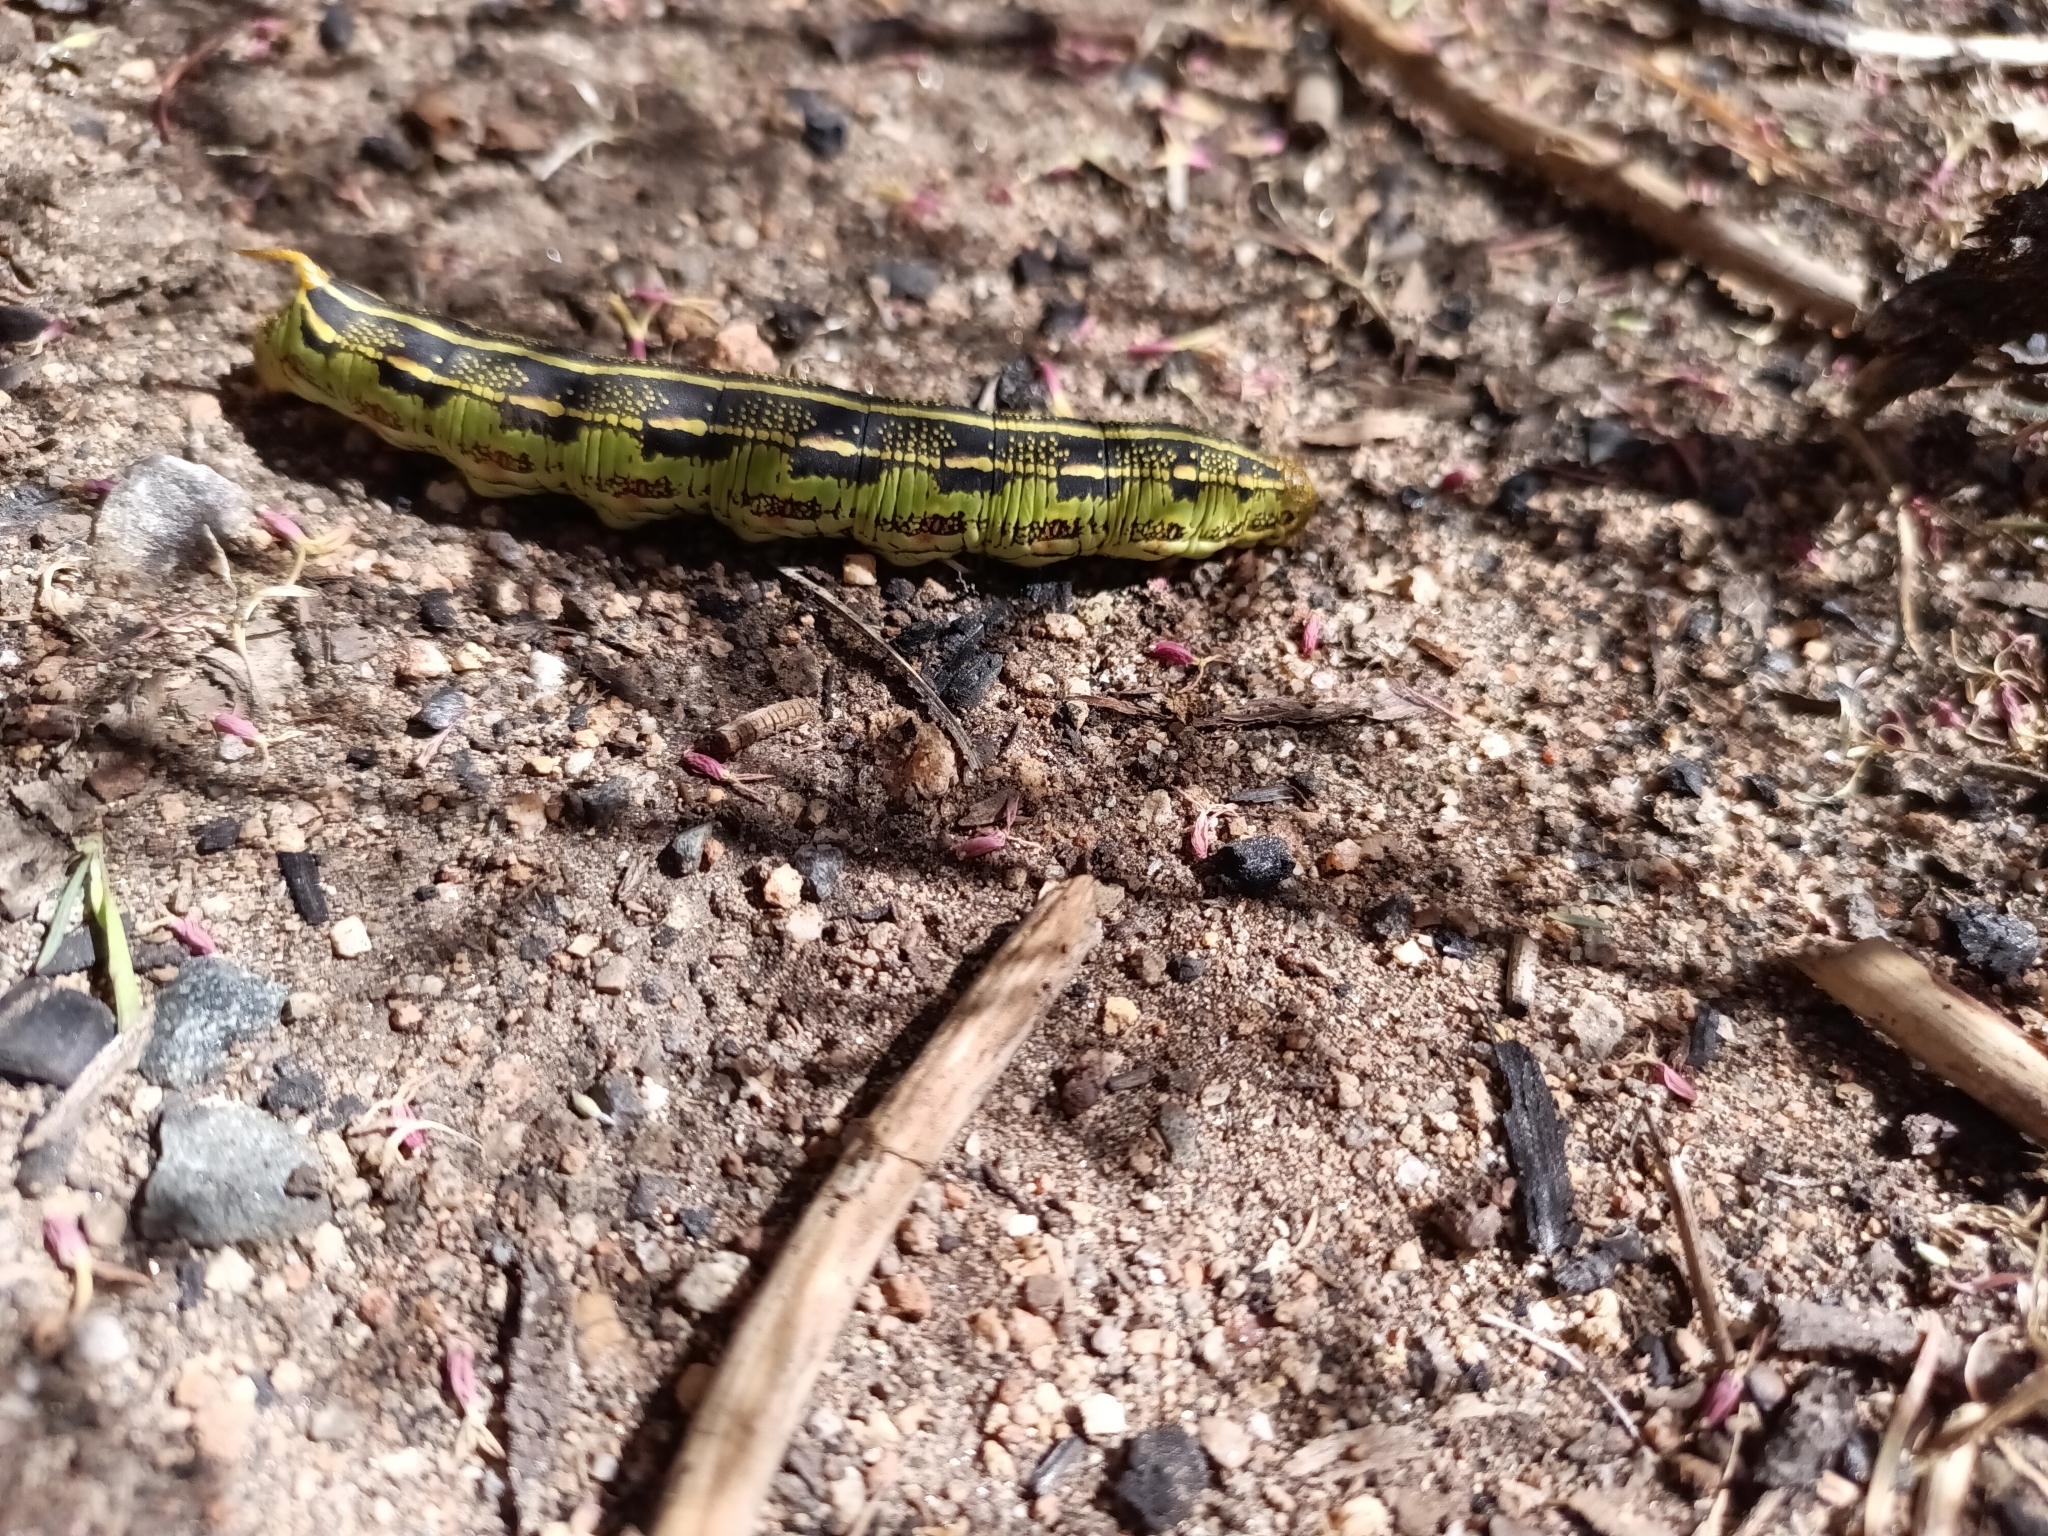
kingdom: Animalia
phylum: Arthropoda
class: Insecta
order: Lepidoptera
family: Sphingidae
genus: Hyles
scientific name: Hyles lineata
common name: White-lined sphinx
